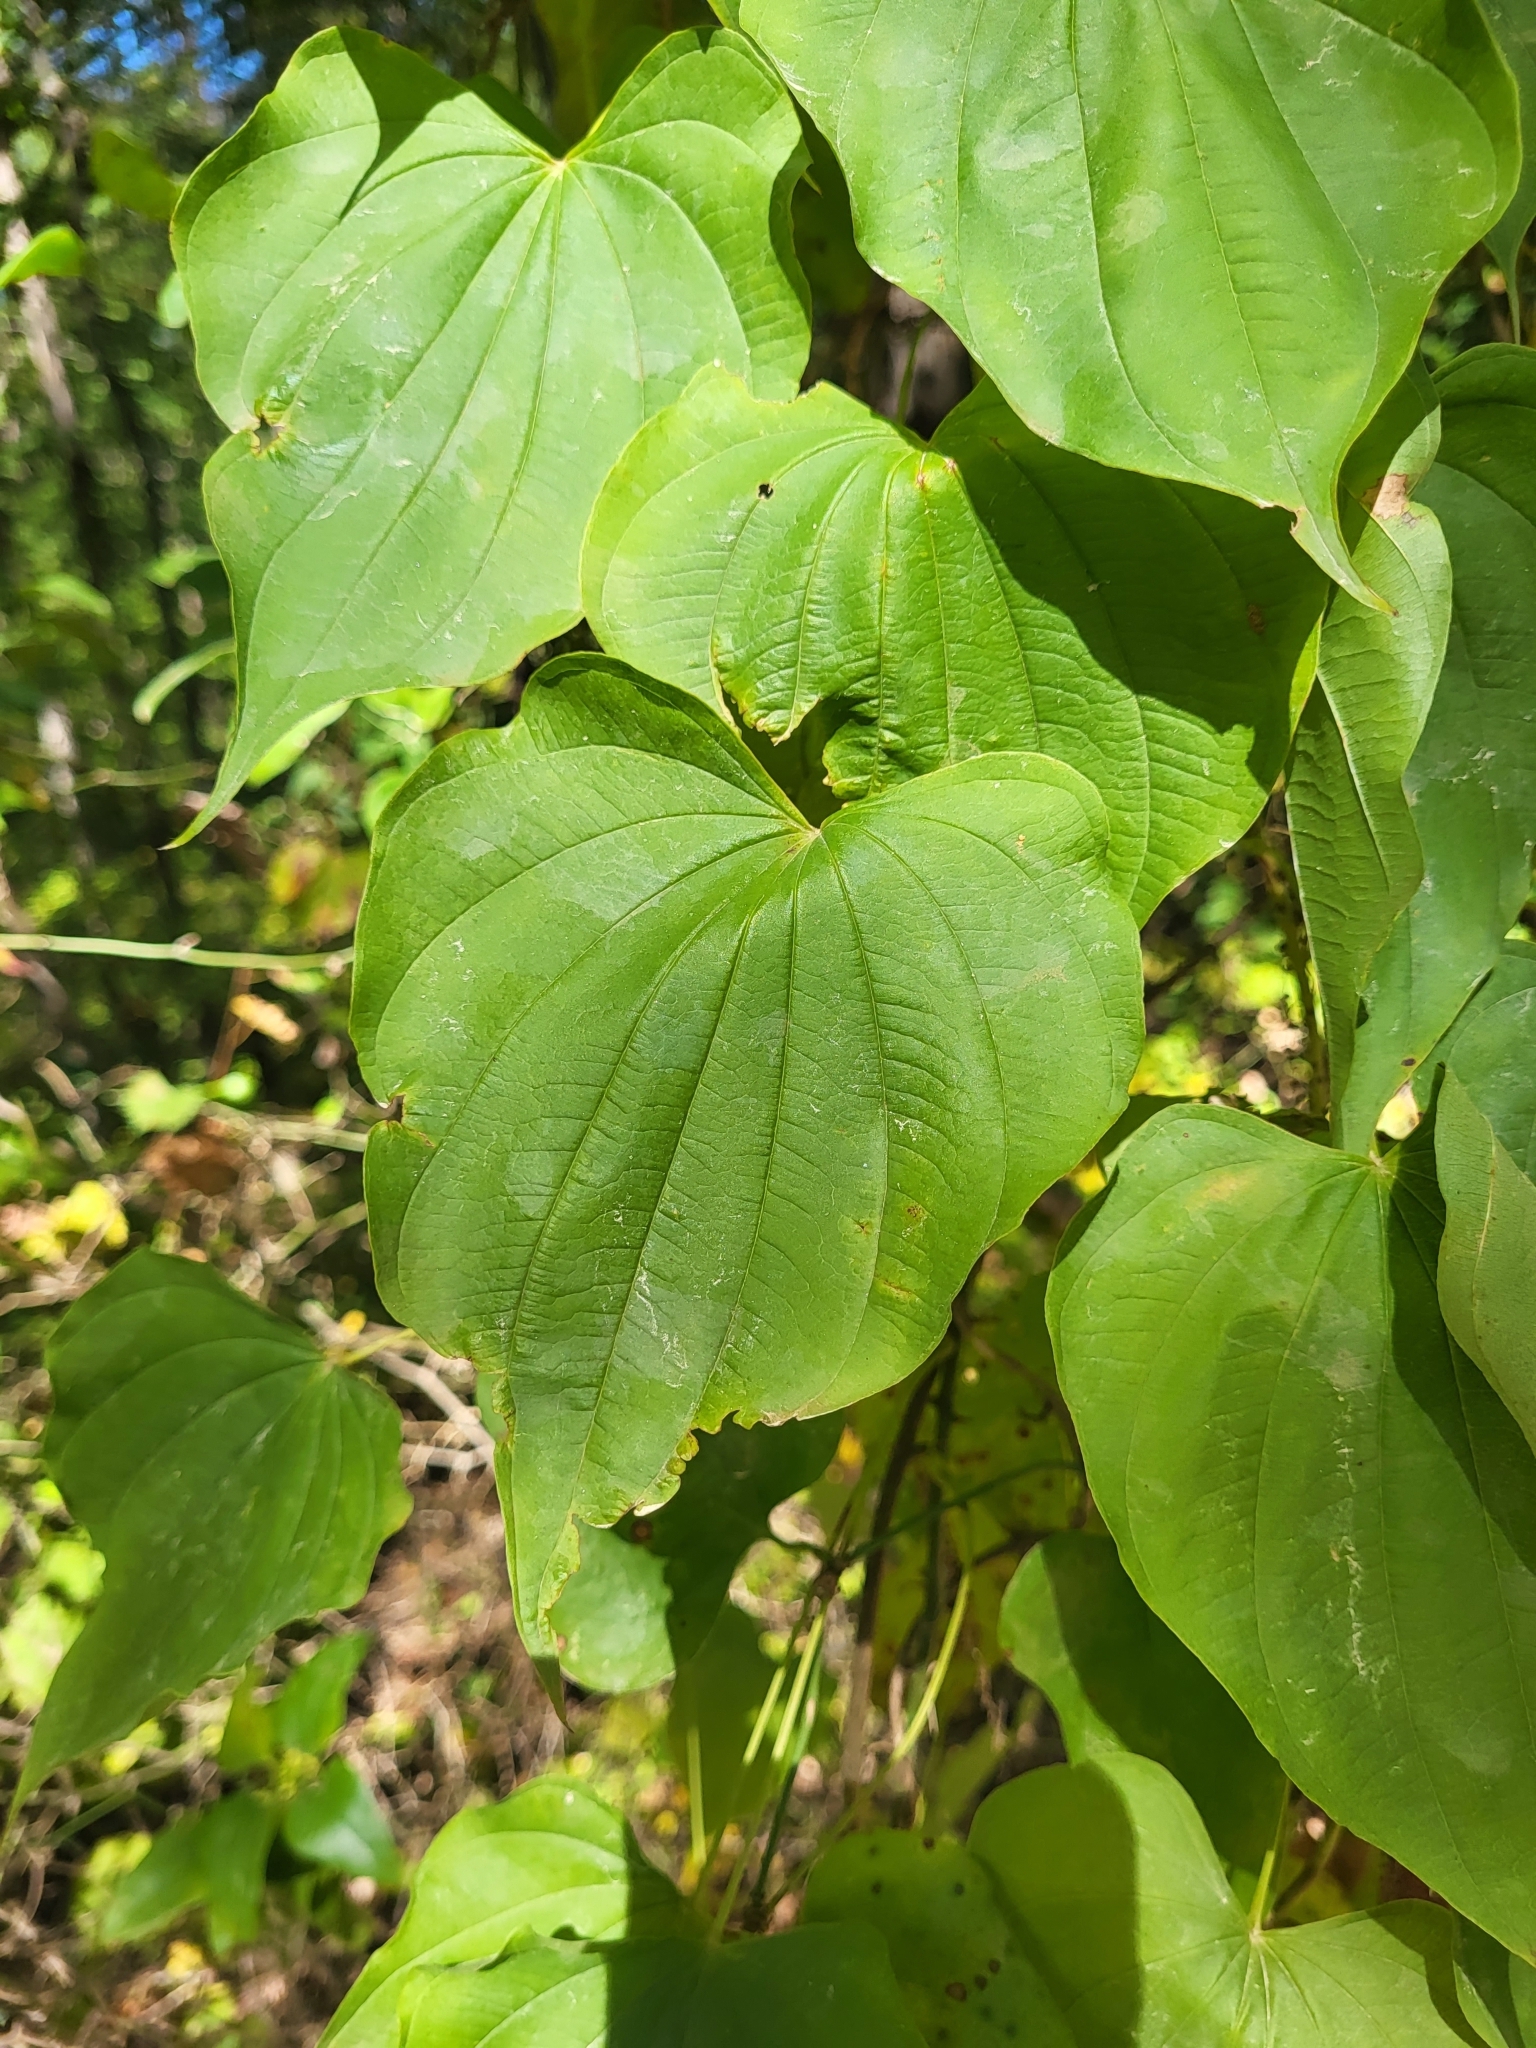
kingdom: Plantae
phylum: Tracheophyta
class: Liliopsida
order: Dioscoreales
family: Dioscoreaceae
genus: Dioscorea
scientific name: Dioscorea villosa
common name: Wild yam
